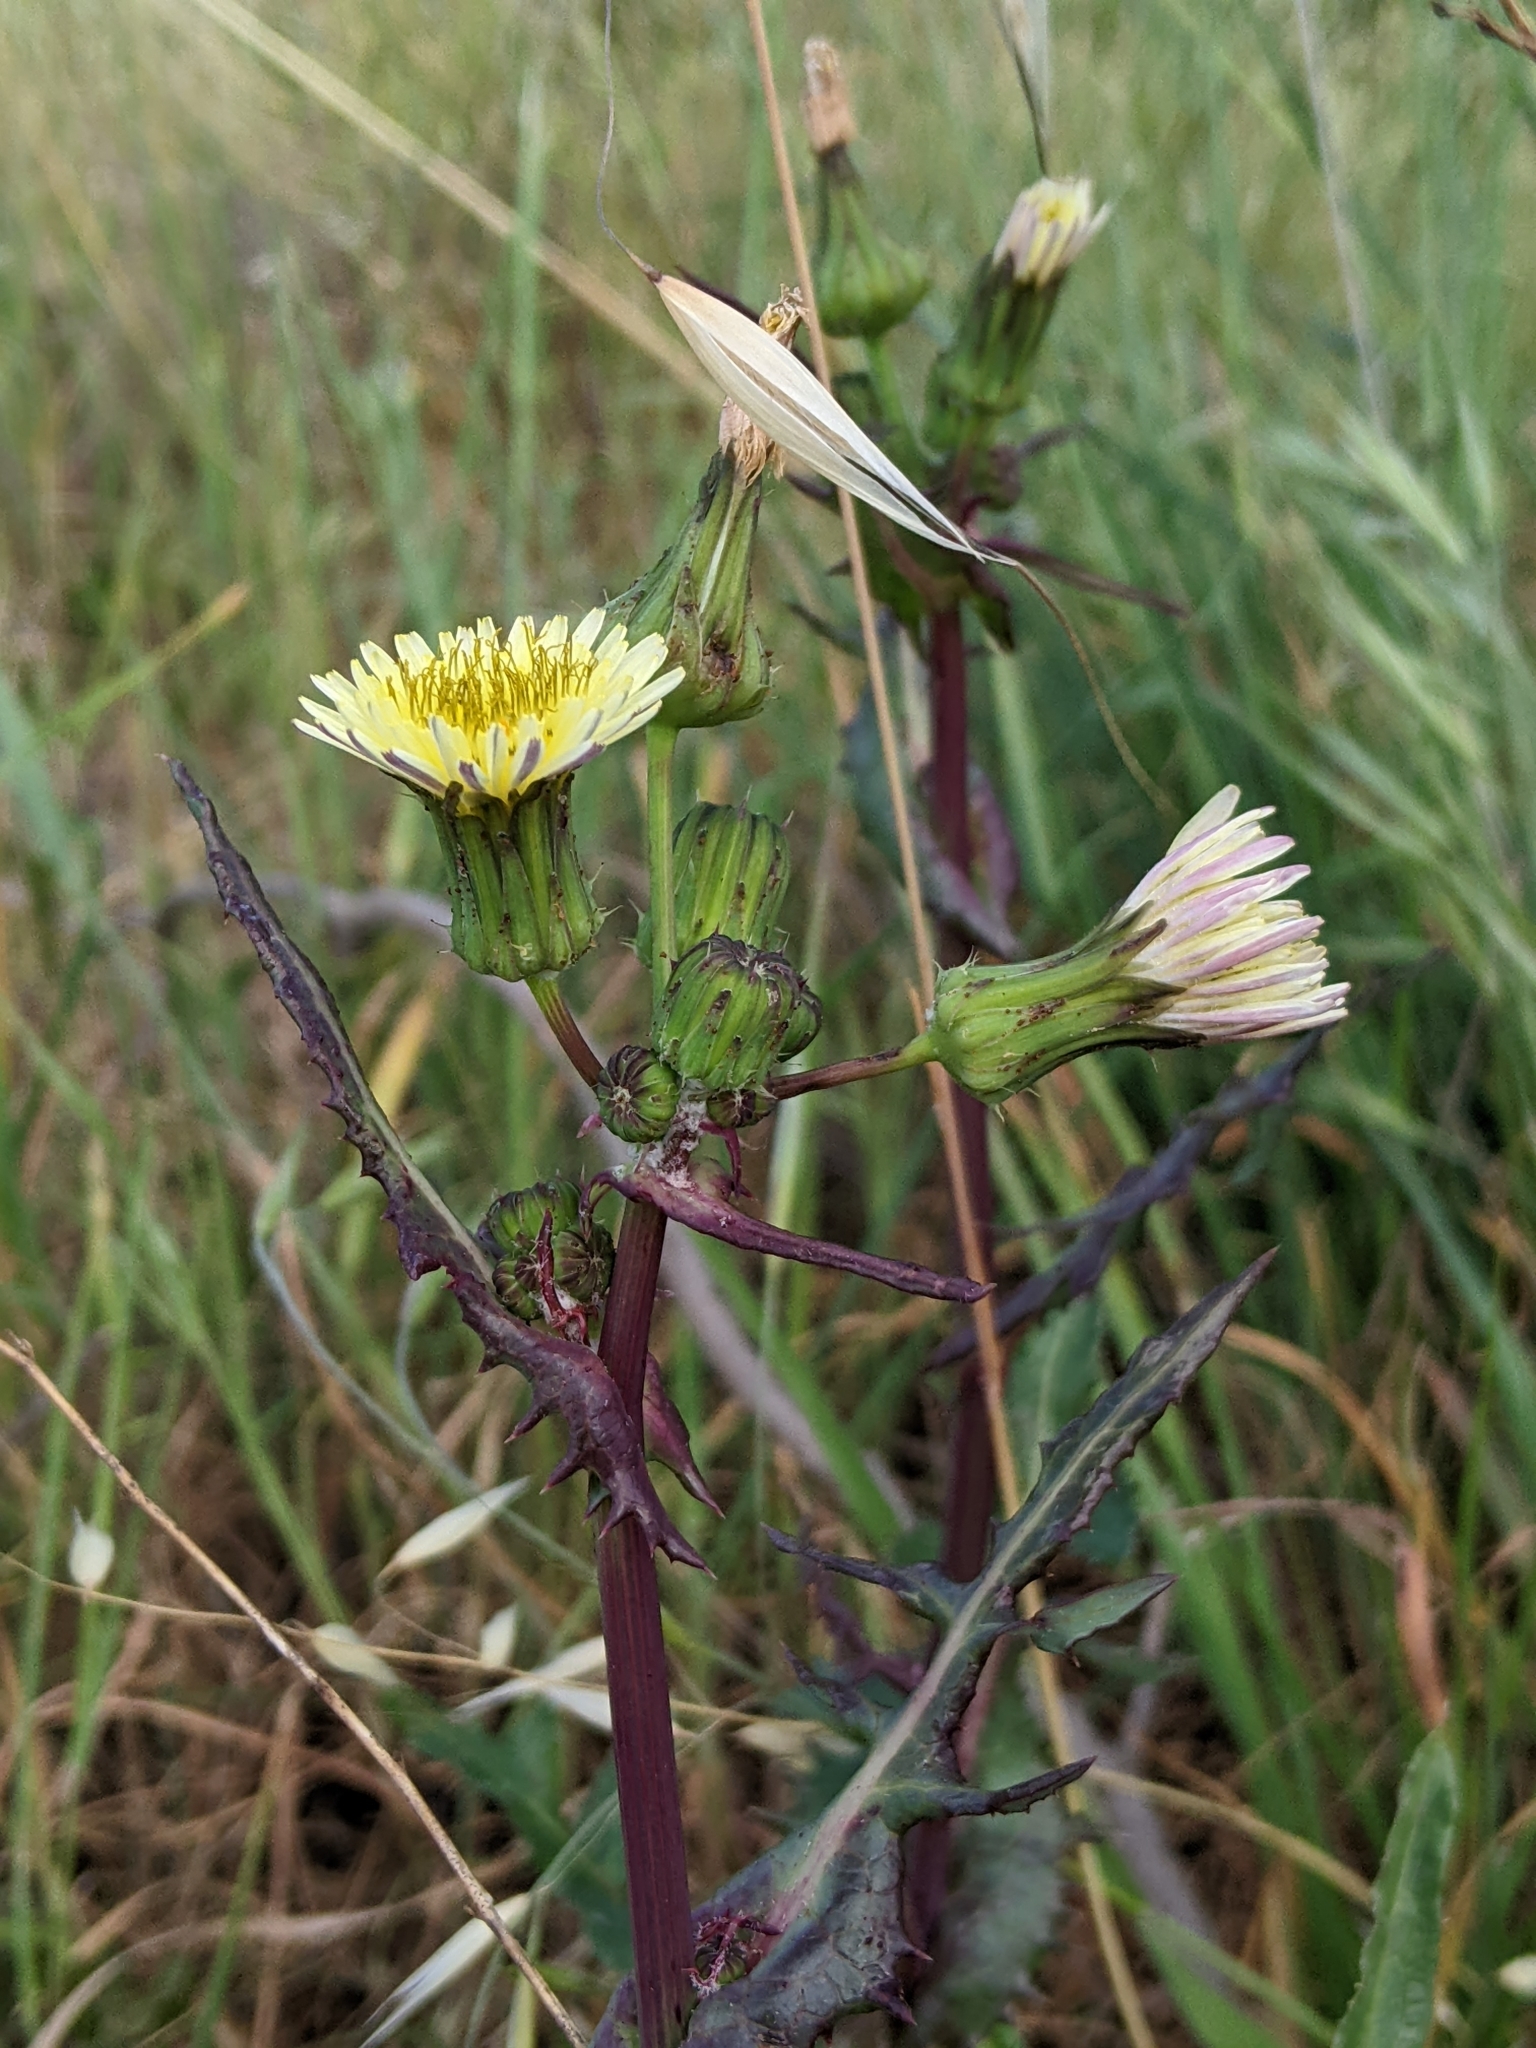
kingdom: Plantae
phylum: Tracheophyta
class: Magnoliopsida
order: Asterales
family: Asteraceae
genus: Sonchus
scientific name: Sonchus oleraceus
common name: Common sowthistle
